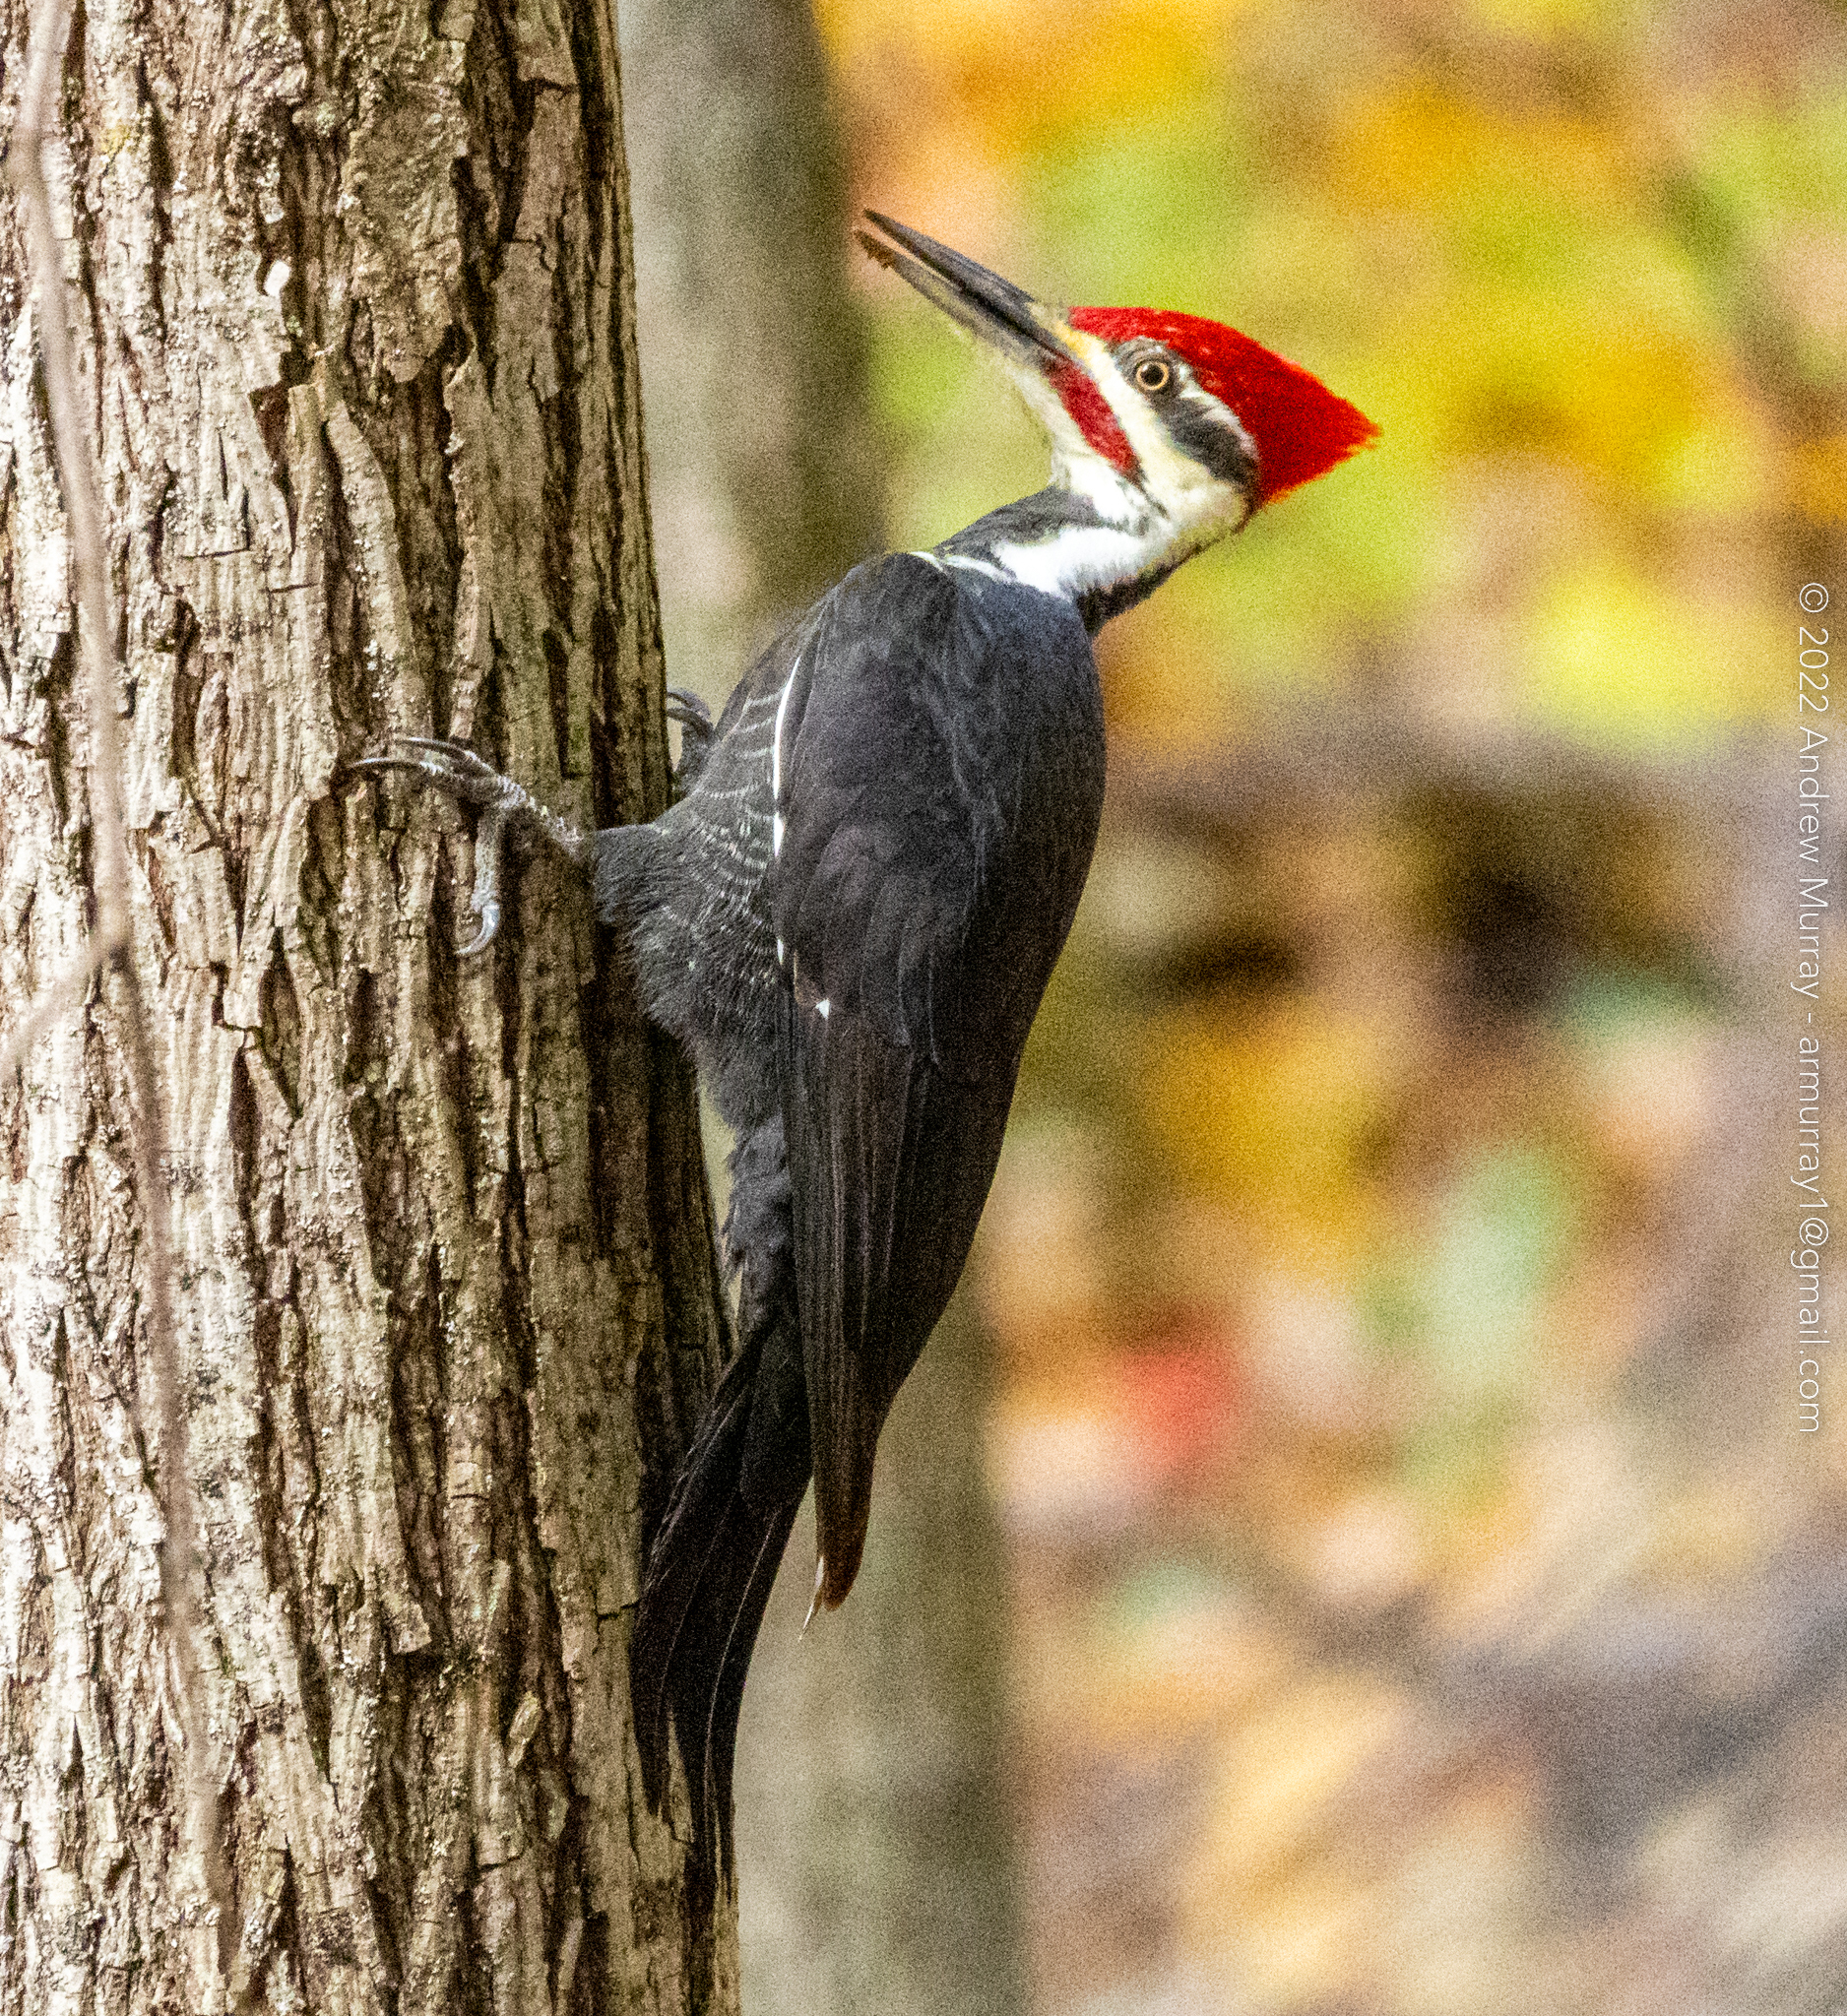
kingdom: Animalia
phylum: Chordata
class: Aves
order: Piciformes
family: Picidae
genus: Dryocopus
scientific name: Dryocopus pileatus
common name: Pileated woodpecker
